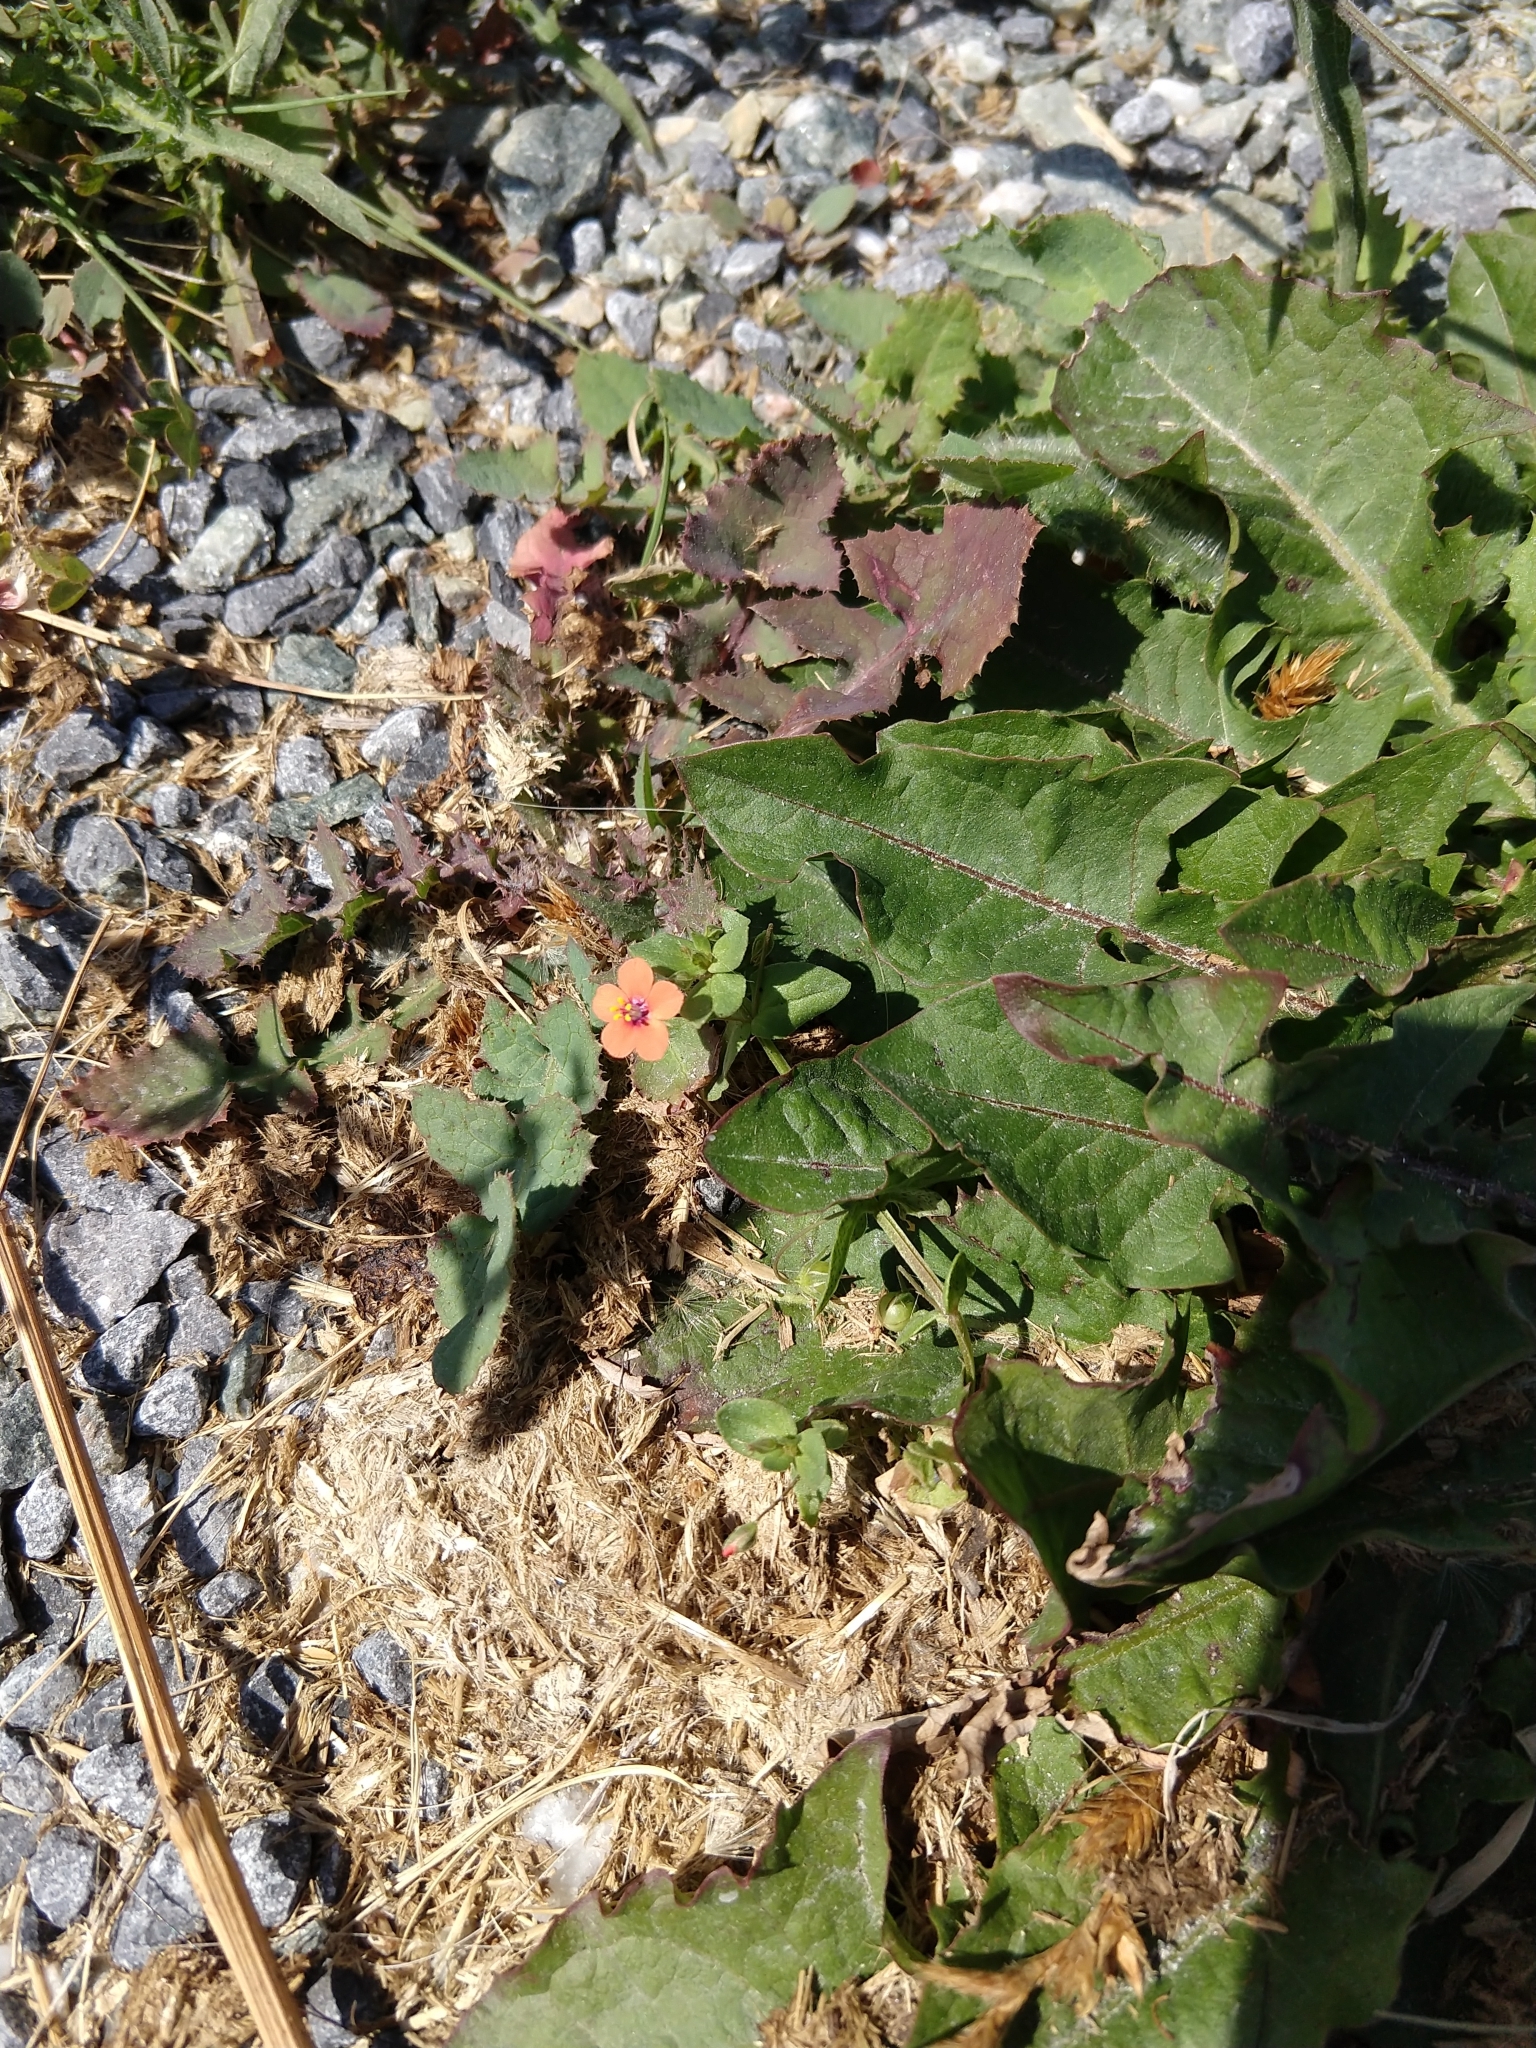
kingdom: Plantae
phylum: Tracheophyta
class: Magnoliopsida
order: Ericales
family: Primulaceae
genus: Lysimachia
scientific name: Lysimachia arvensis
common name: Scarlet pimpernel
